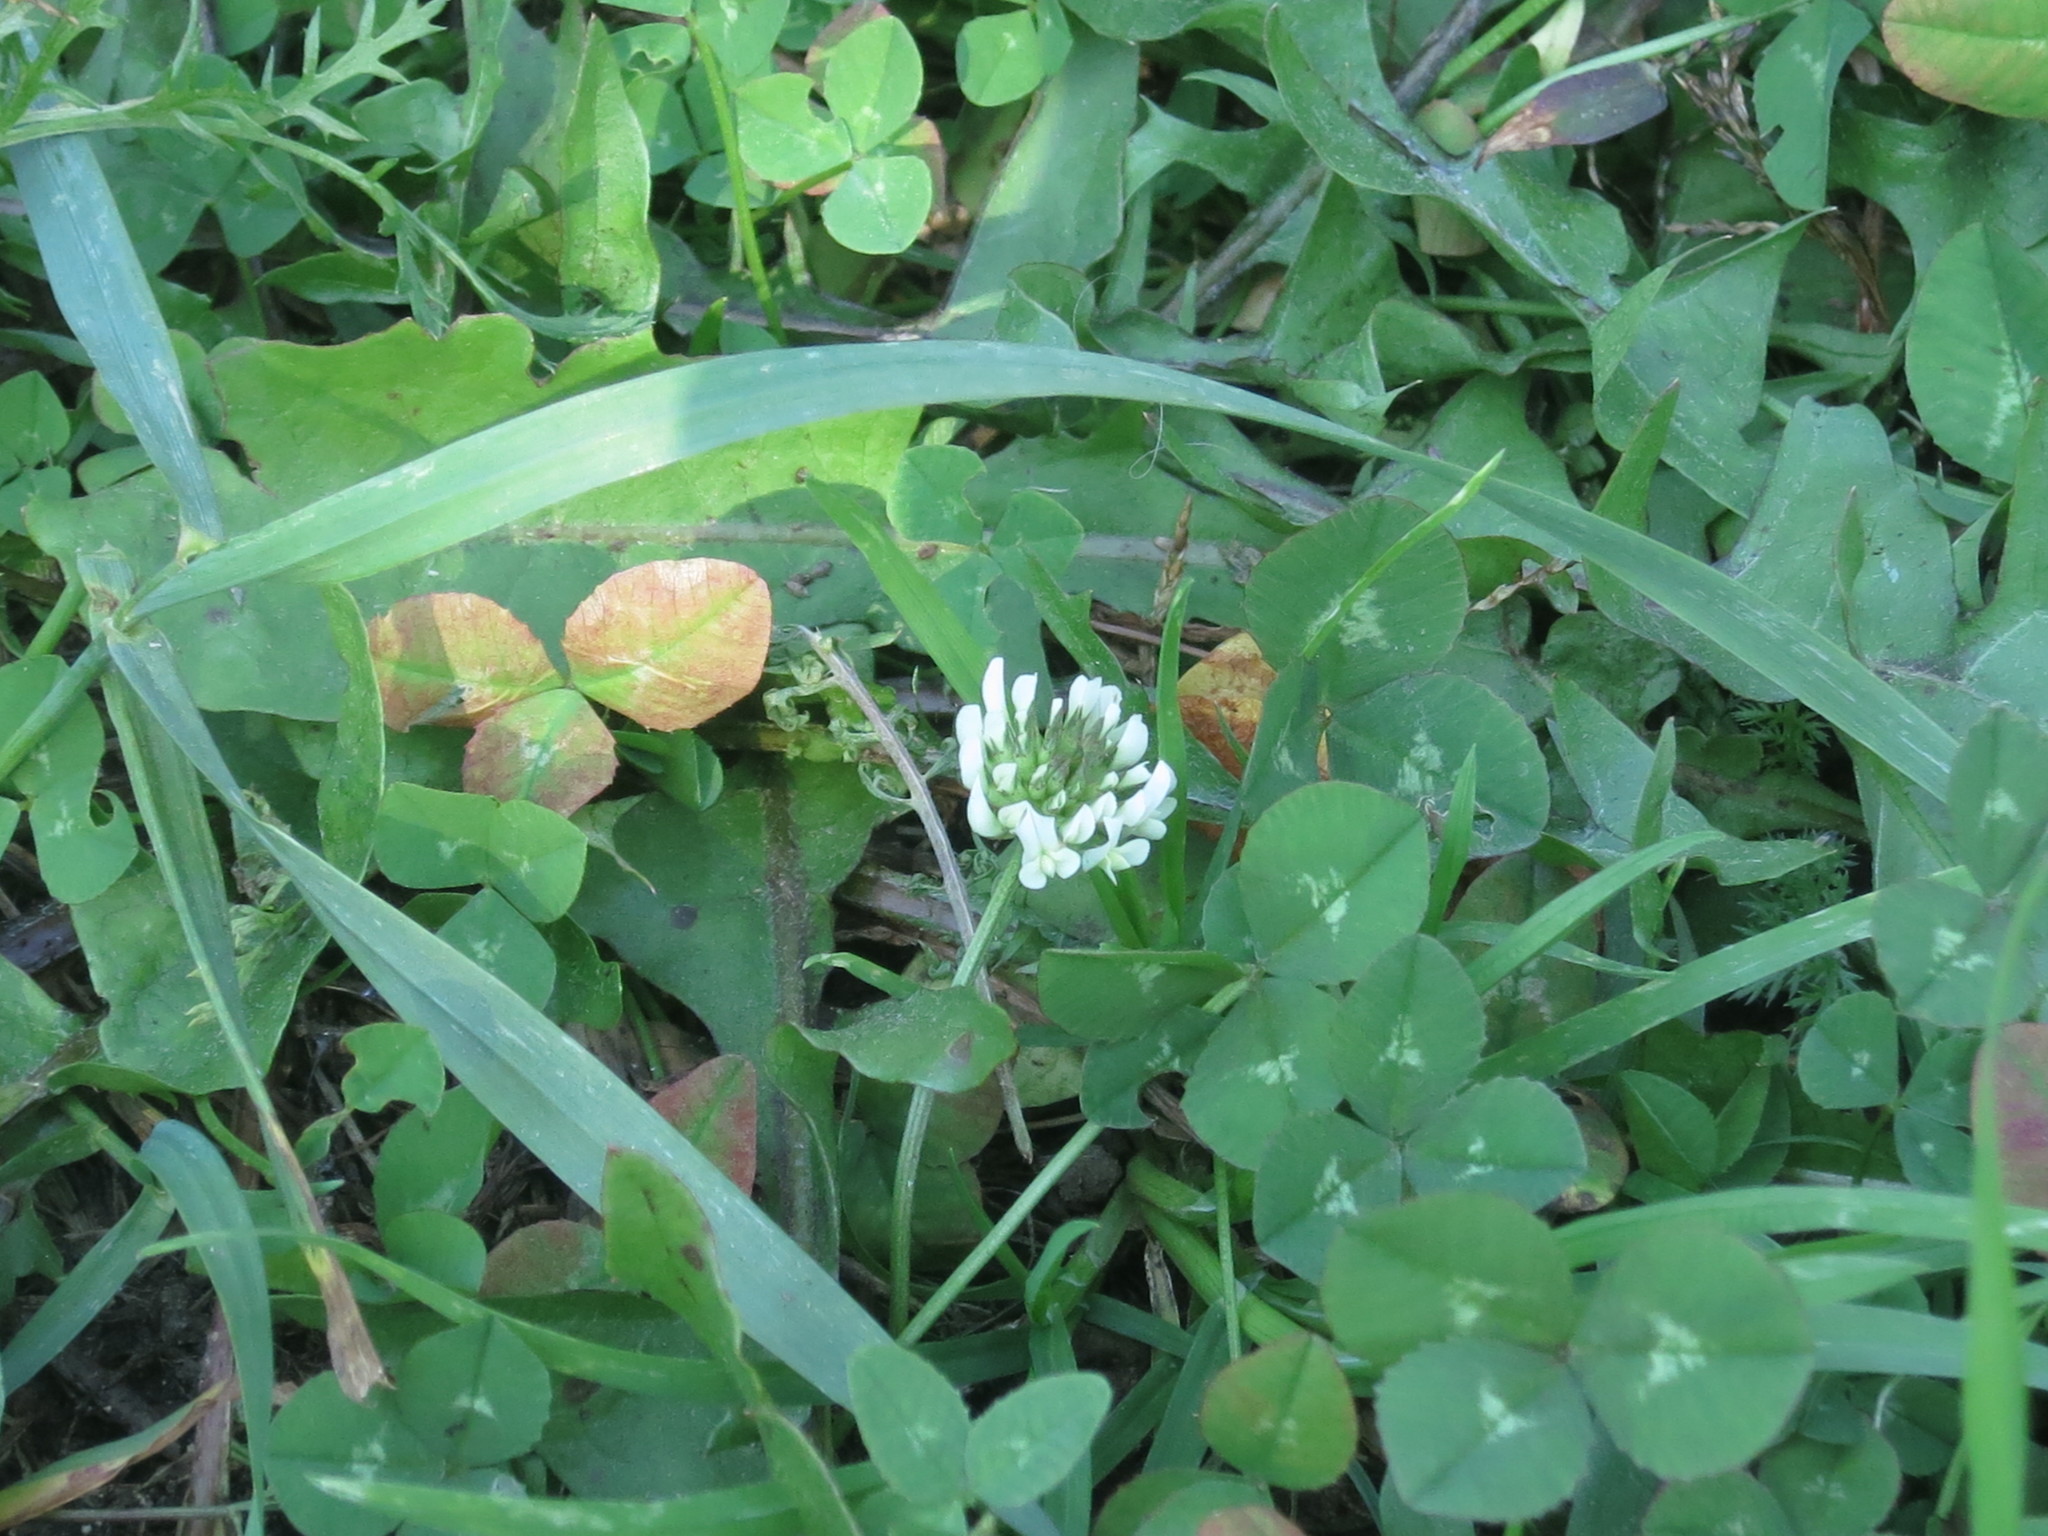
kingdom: Plantae
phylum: Tracheophyta
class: Magnoliopsida
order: Fabales
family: Fabaceae
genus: Trifolium
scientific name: Trifolium repens
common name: White clover
